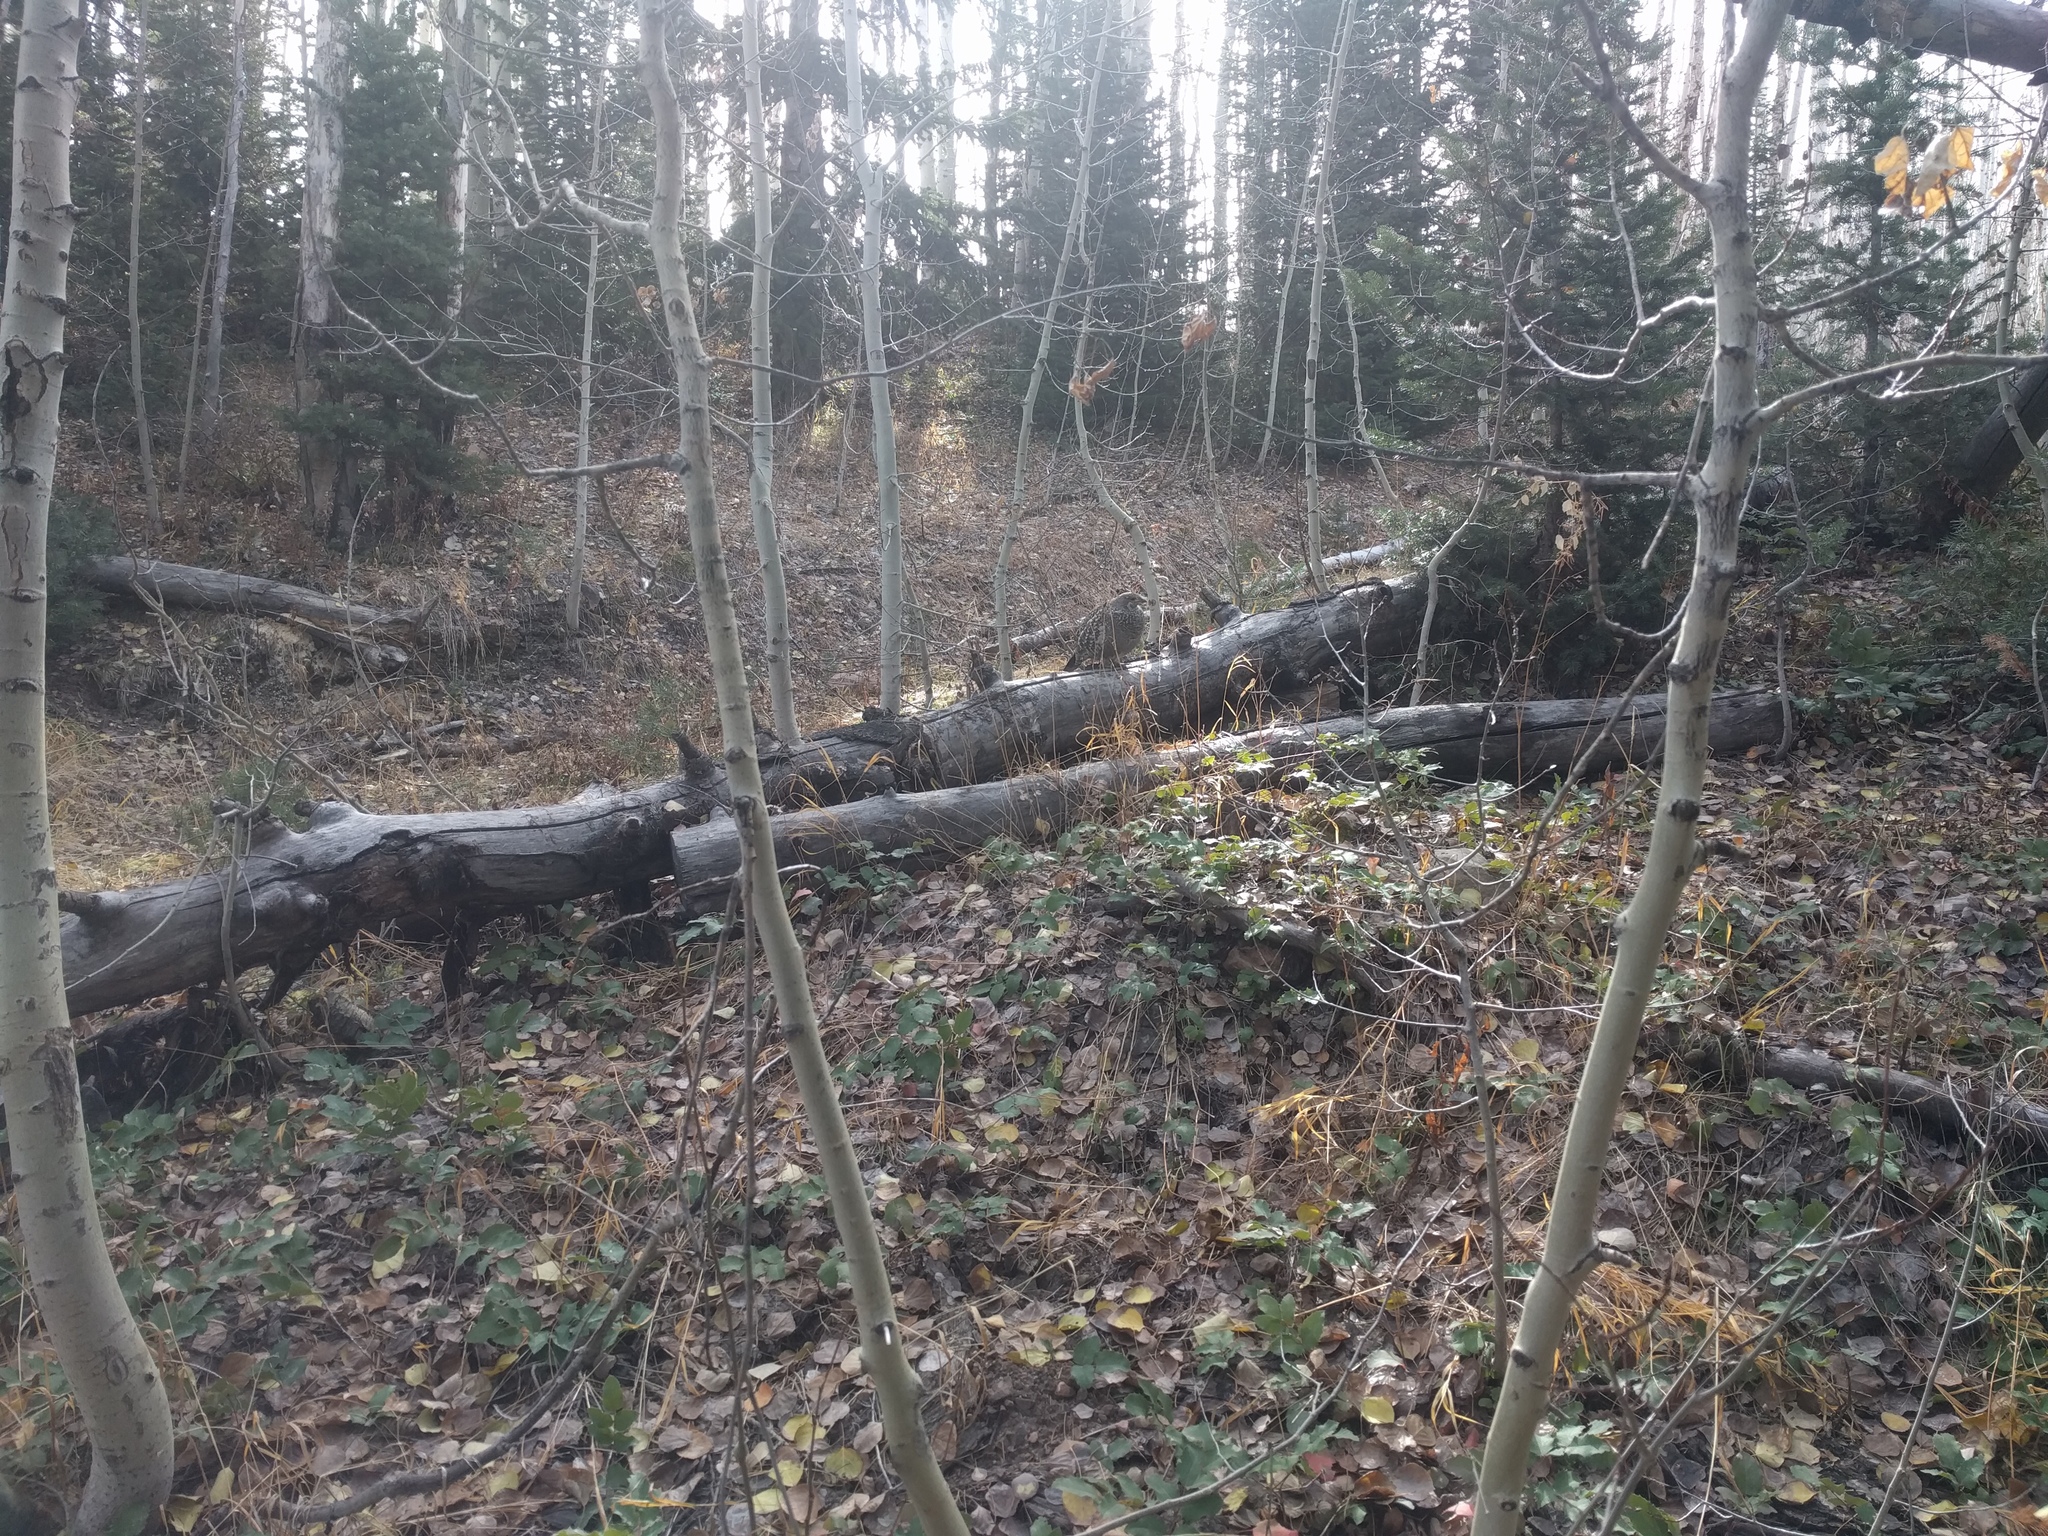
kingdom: Animalia
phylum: Chordata
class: Aves
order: Galliformes
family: Phasianidae
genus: Dendragapus
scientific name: Dendragapus obscurus
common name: Dusky grouse
